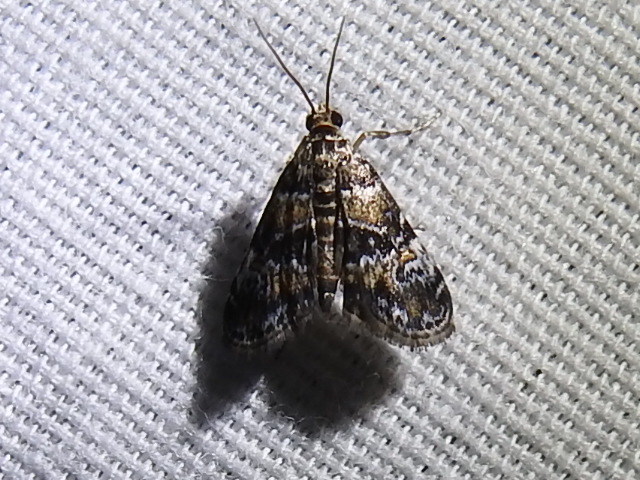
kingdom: Animalia
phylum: Arthropoda
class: Insecta
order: Lepidoptera
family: Crambidae
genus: Elophila
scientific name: Elophila obliteralis
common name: Waterlily leafcutter moth
